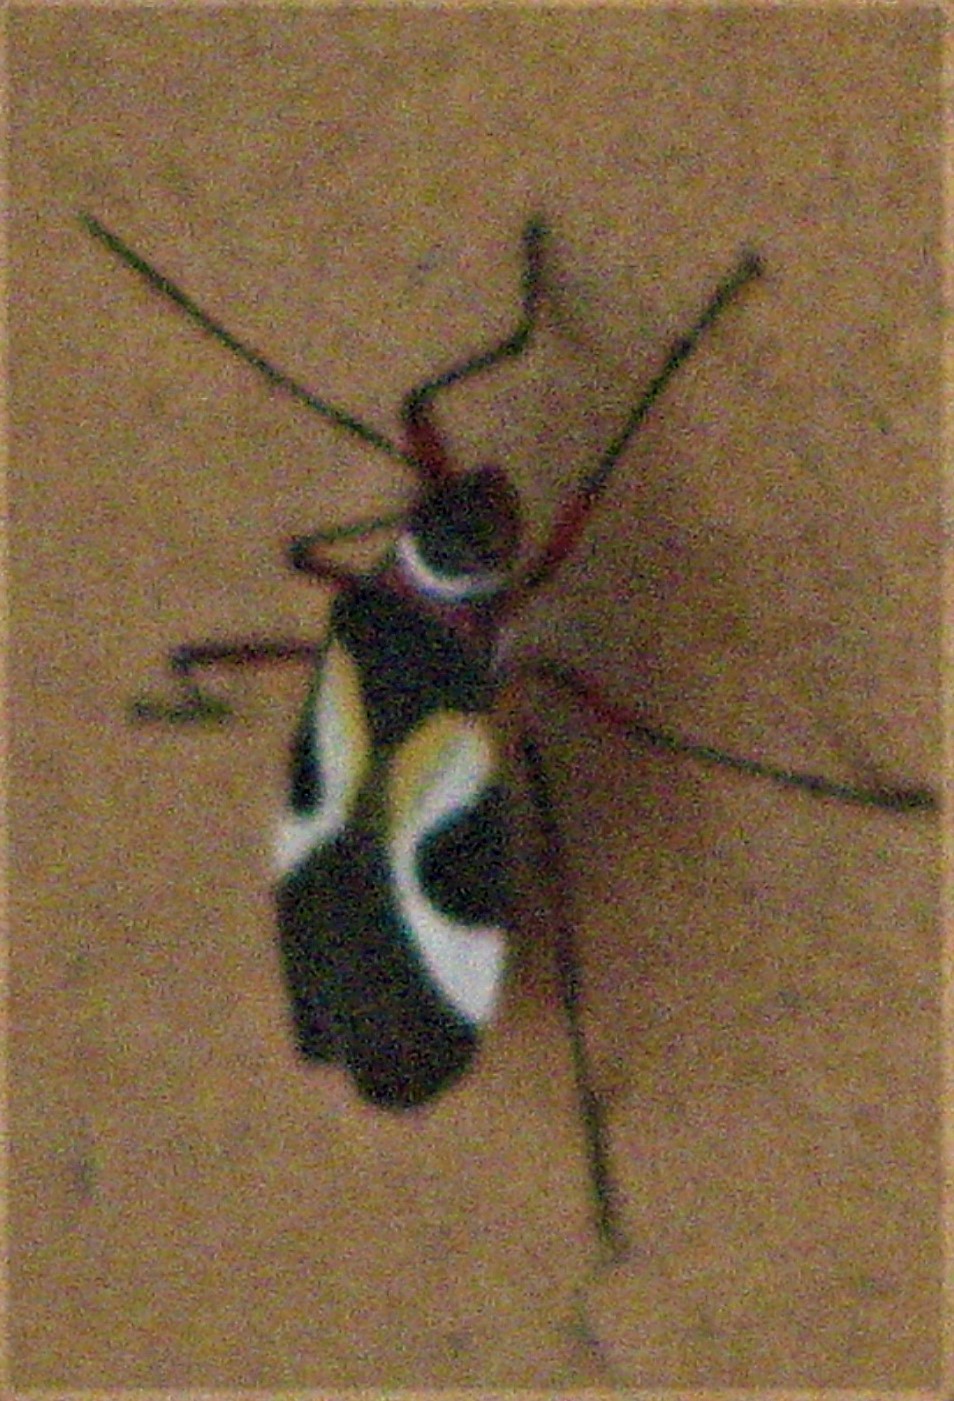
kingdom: Animalia
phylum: Arthropoda
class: Insecta
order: Hemiptera
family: Pyrrhocoridae
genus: Dysdercus
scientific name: Dysdercus concinnus
